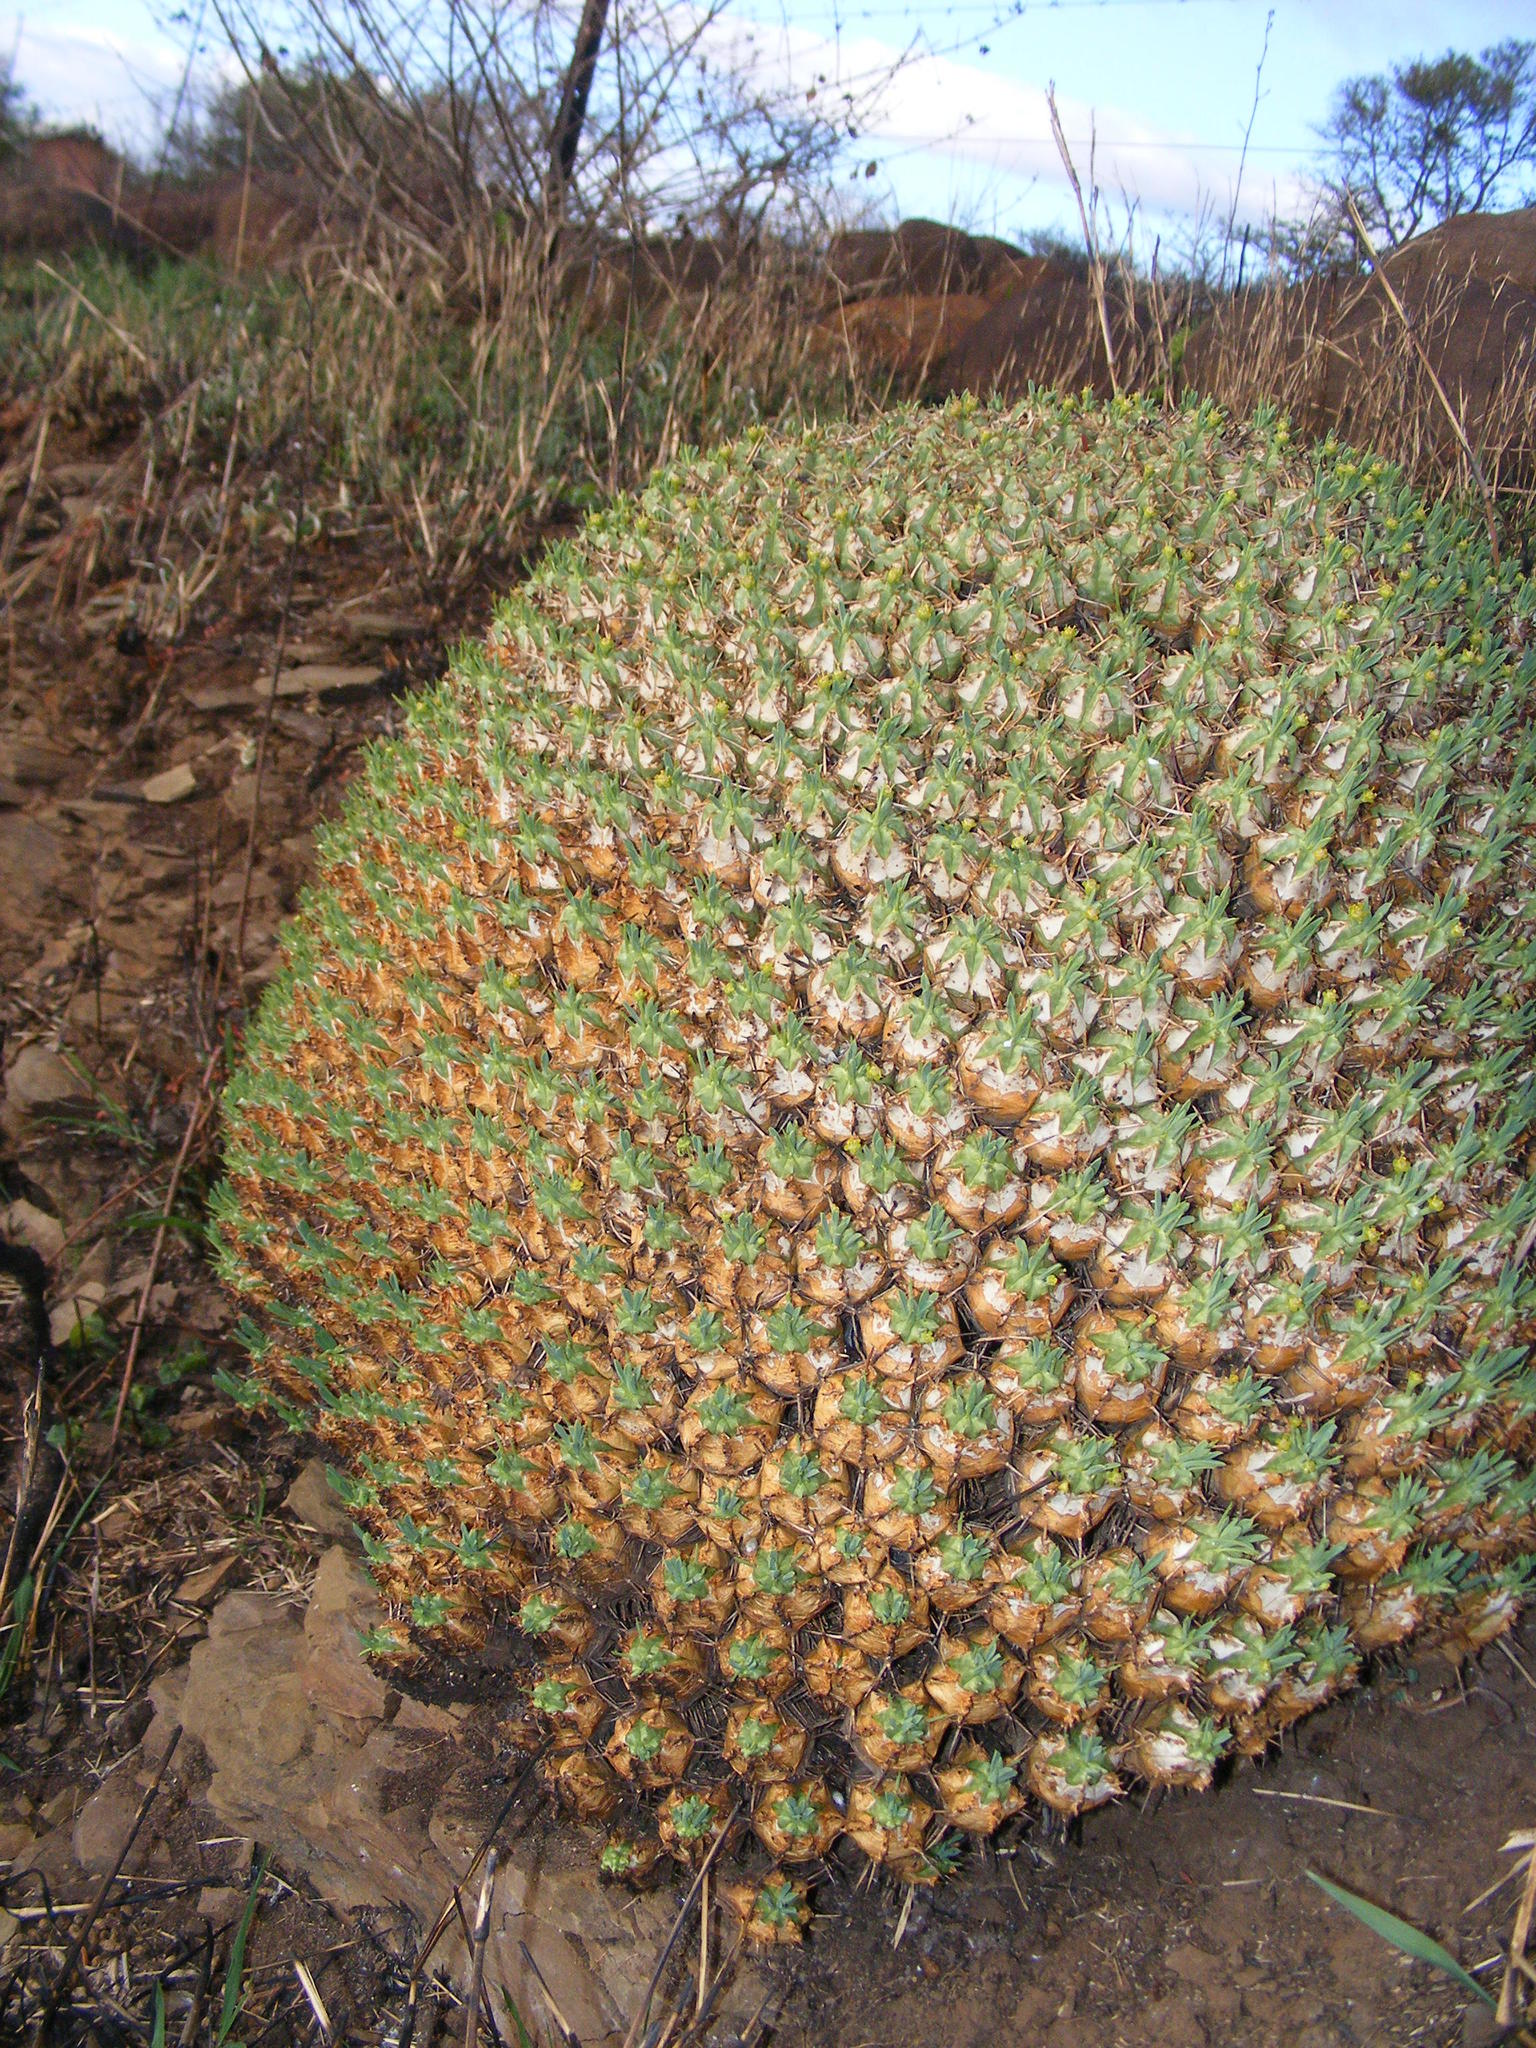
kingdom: Plantae
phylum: Tracheophyta
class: Magnoliopsida
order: Malpighiales
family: Euphorbiaceae
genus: Euphorbia
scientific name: Euphorbia pulvinata
